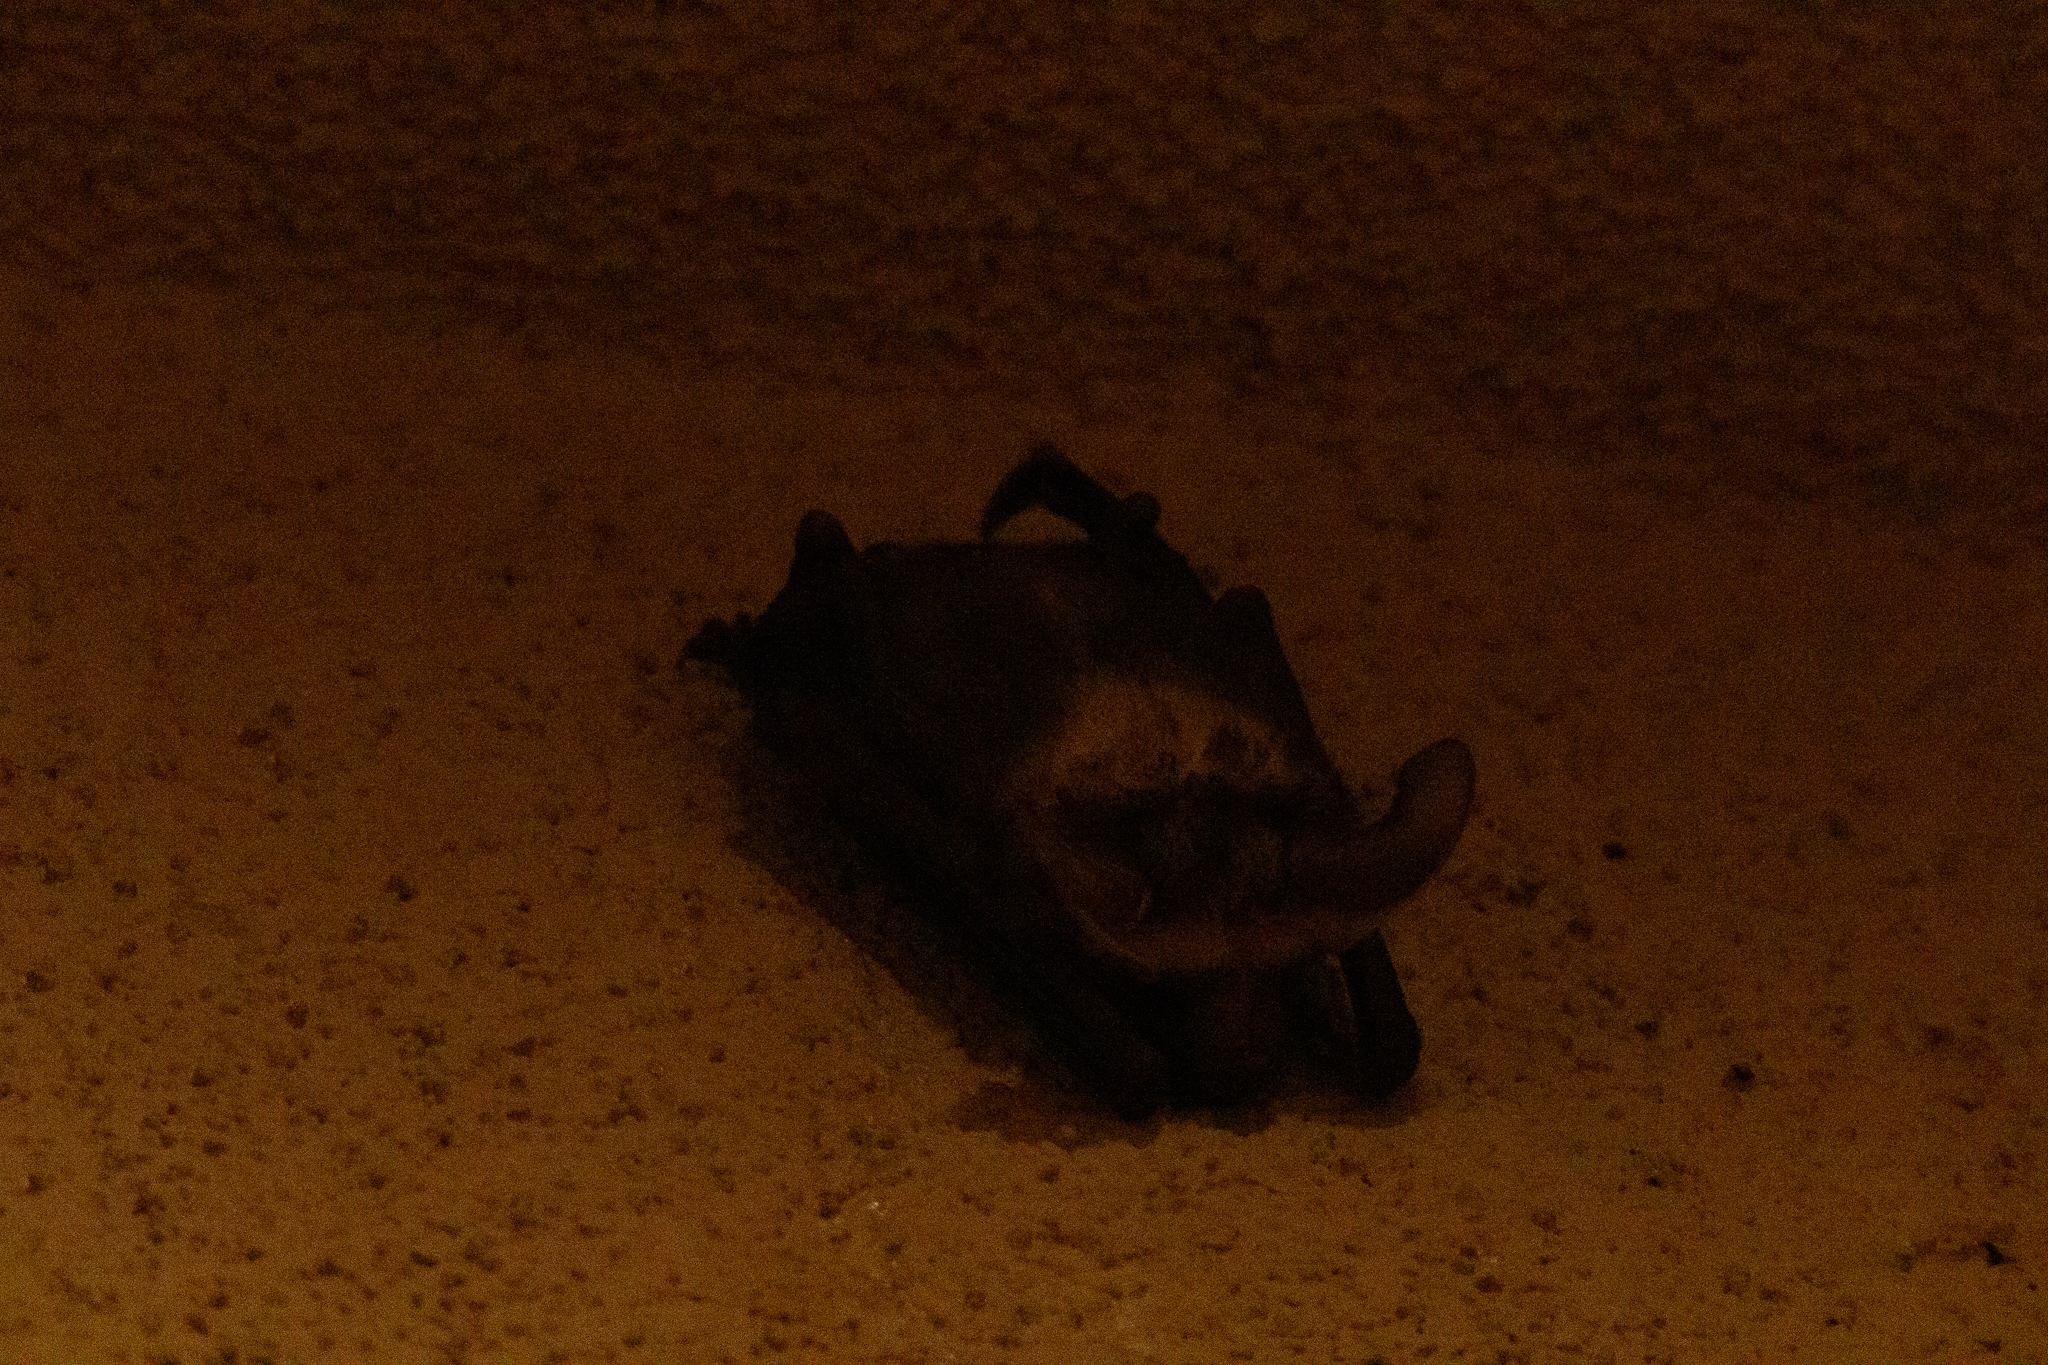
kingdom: Animalia
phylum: Chordata
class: Mammalia
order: Chiroptera
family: Vespertilionidae
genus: Antrozous
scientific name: Antrozous pallidus
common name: Pallid bat
